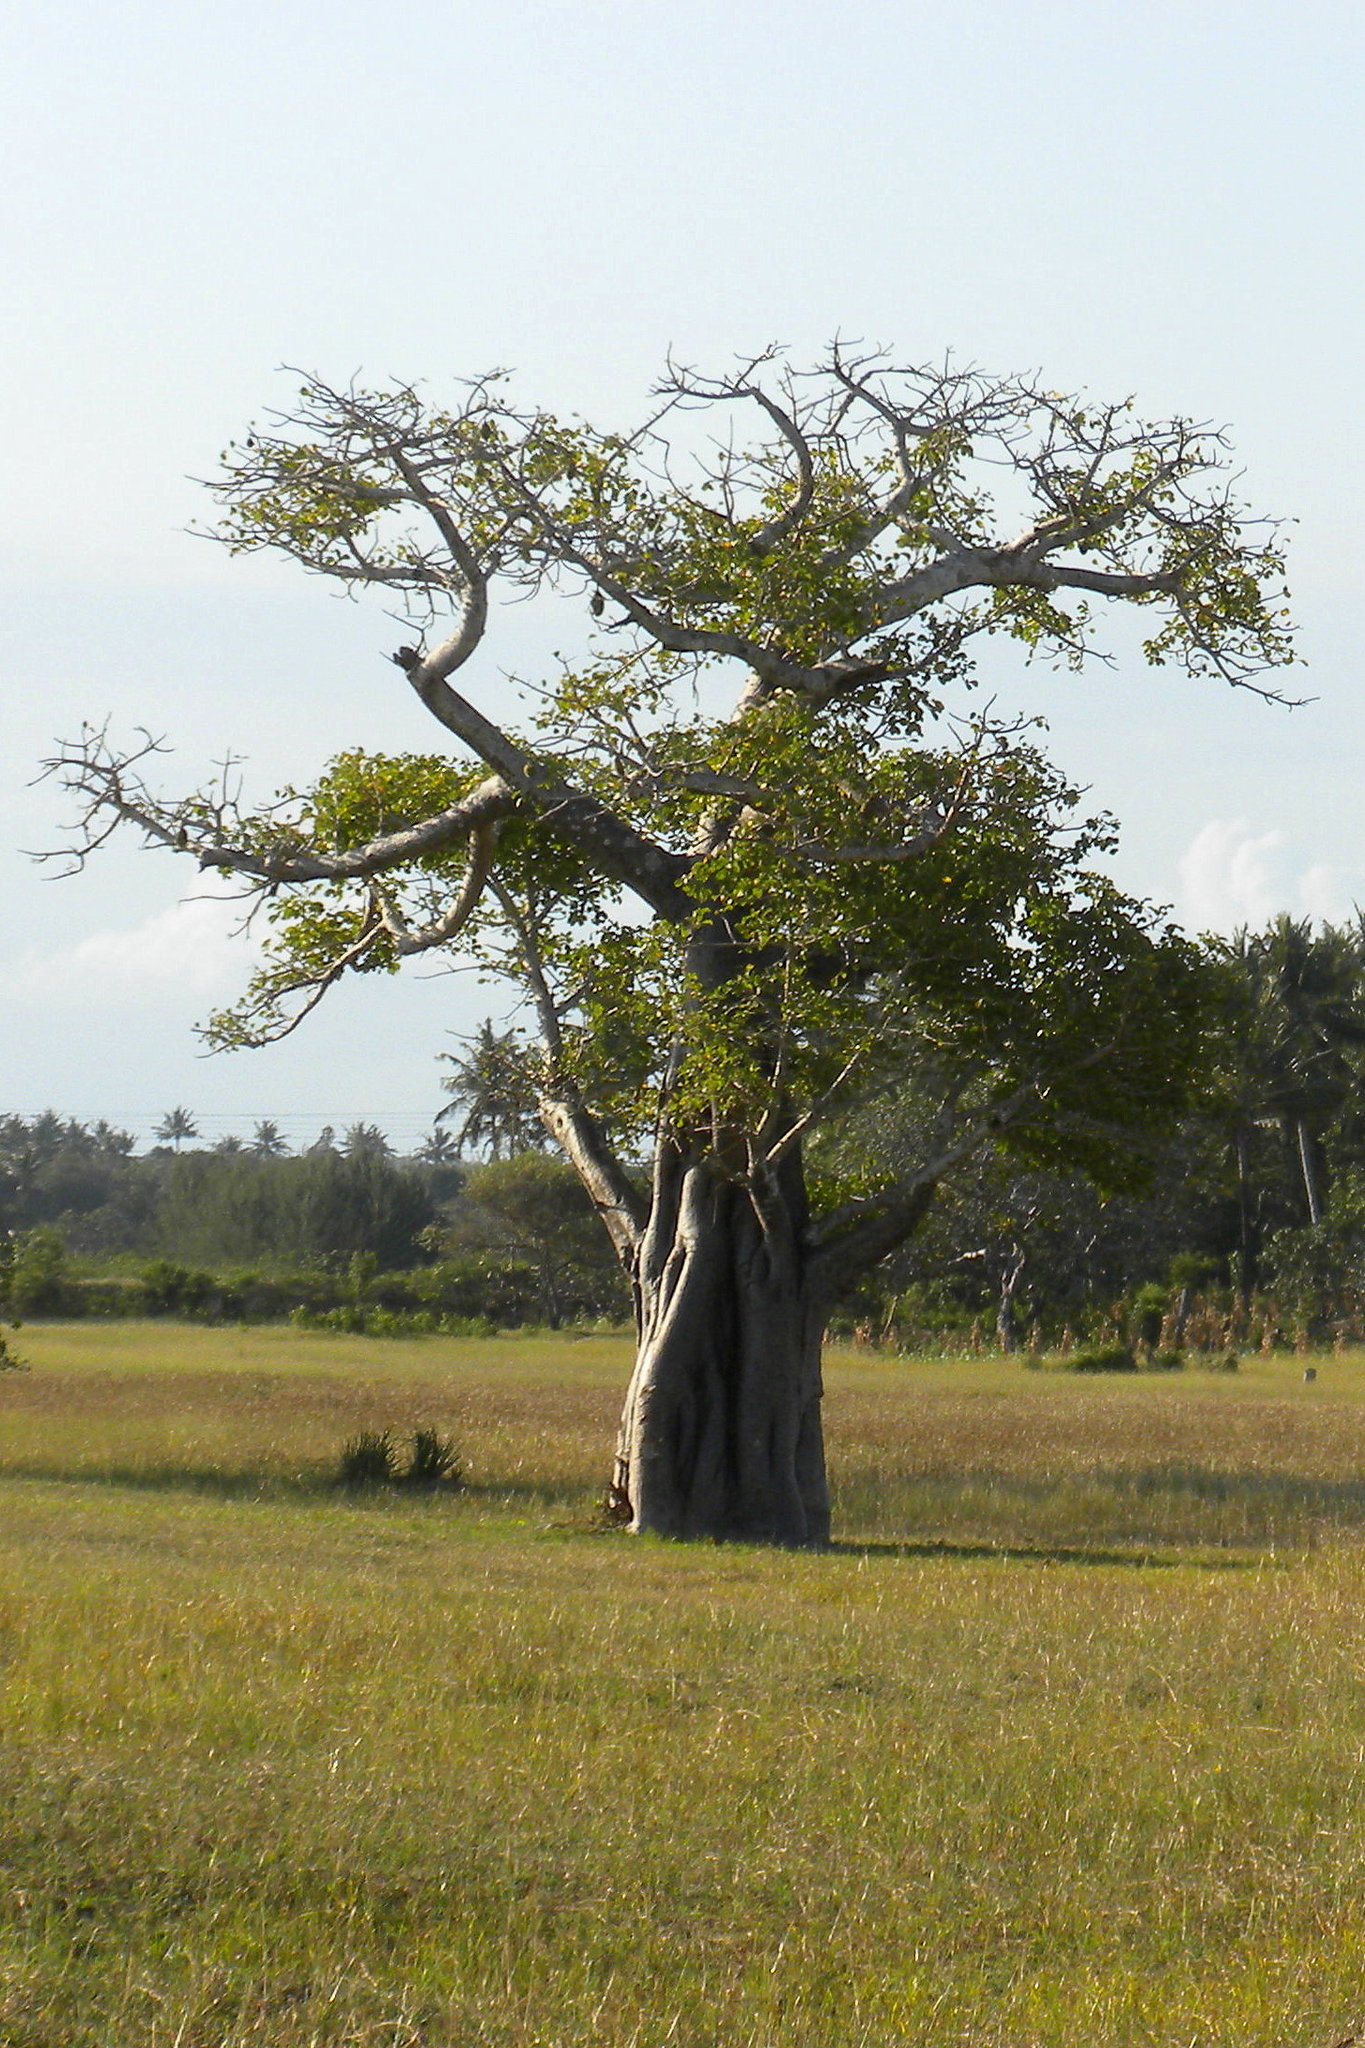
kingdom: Plantae
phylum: Tracheophyta
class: Magnoliopsida
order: Malvales
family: Malvaceae
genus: Adansonia
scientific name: Adansonia digitata
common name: Dead-rat-tree
